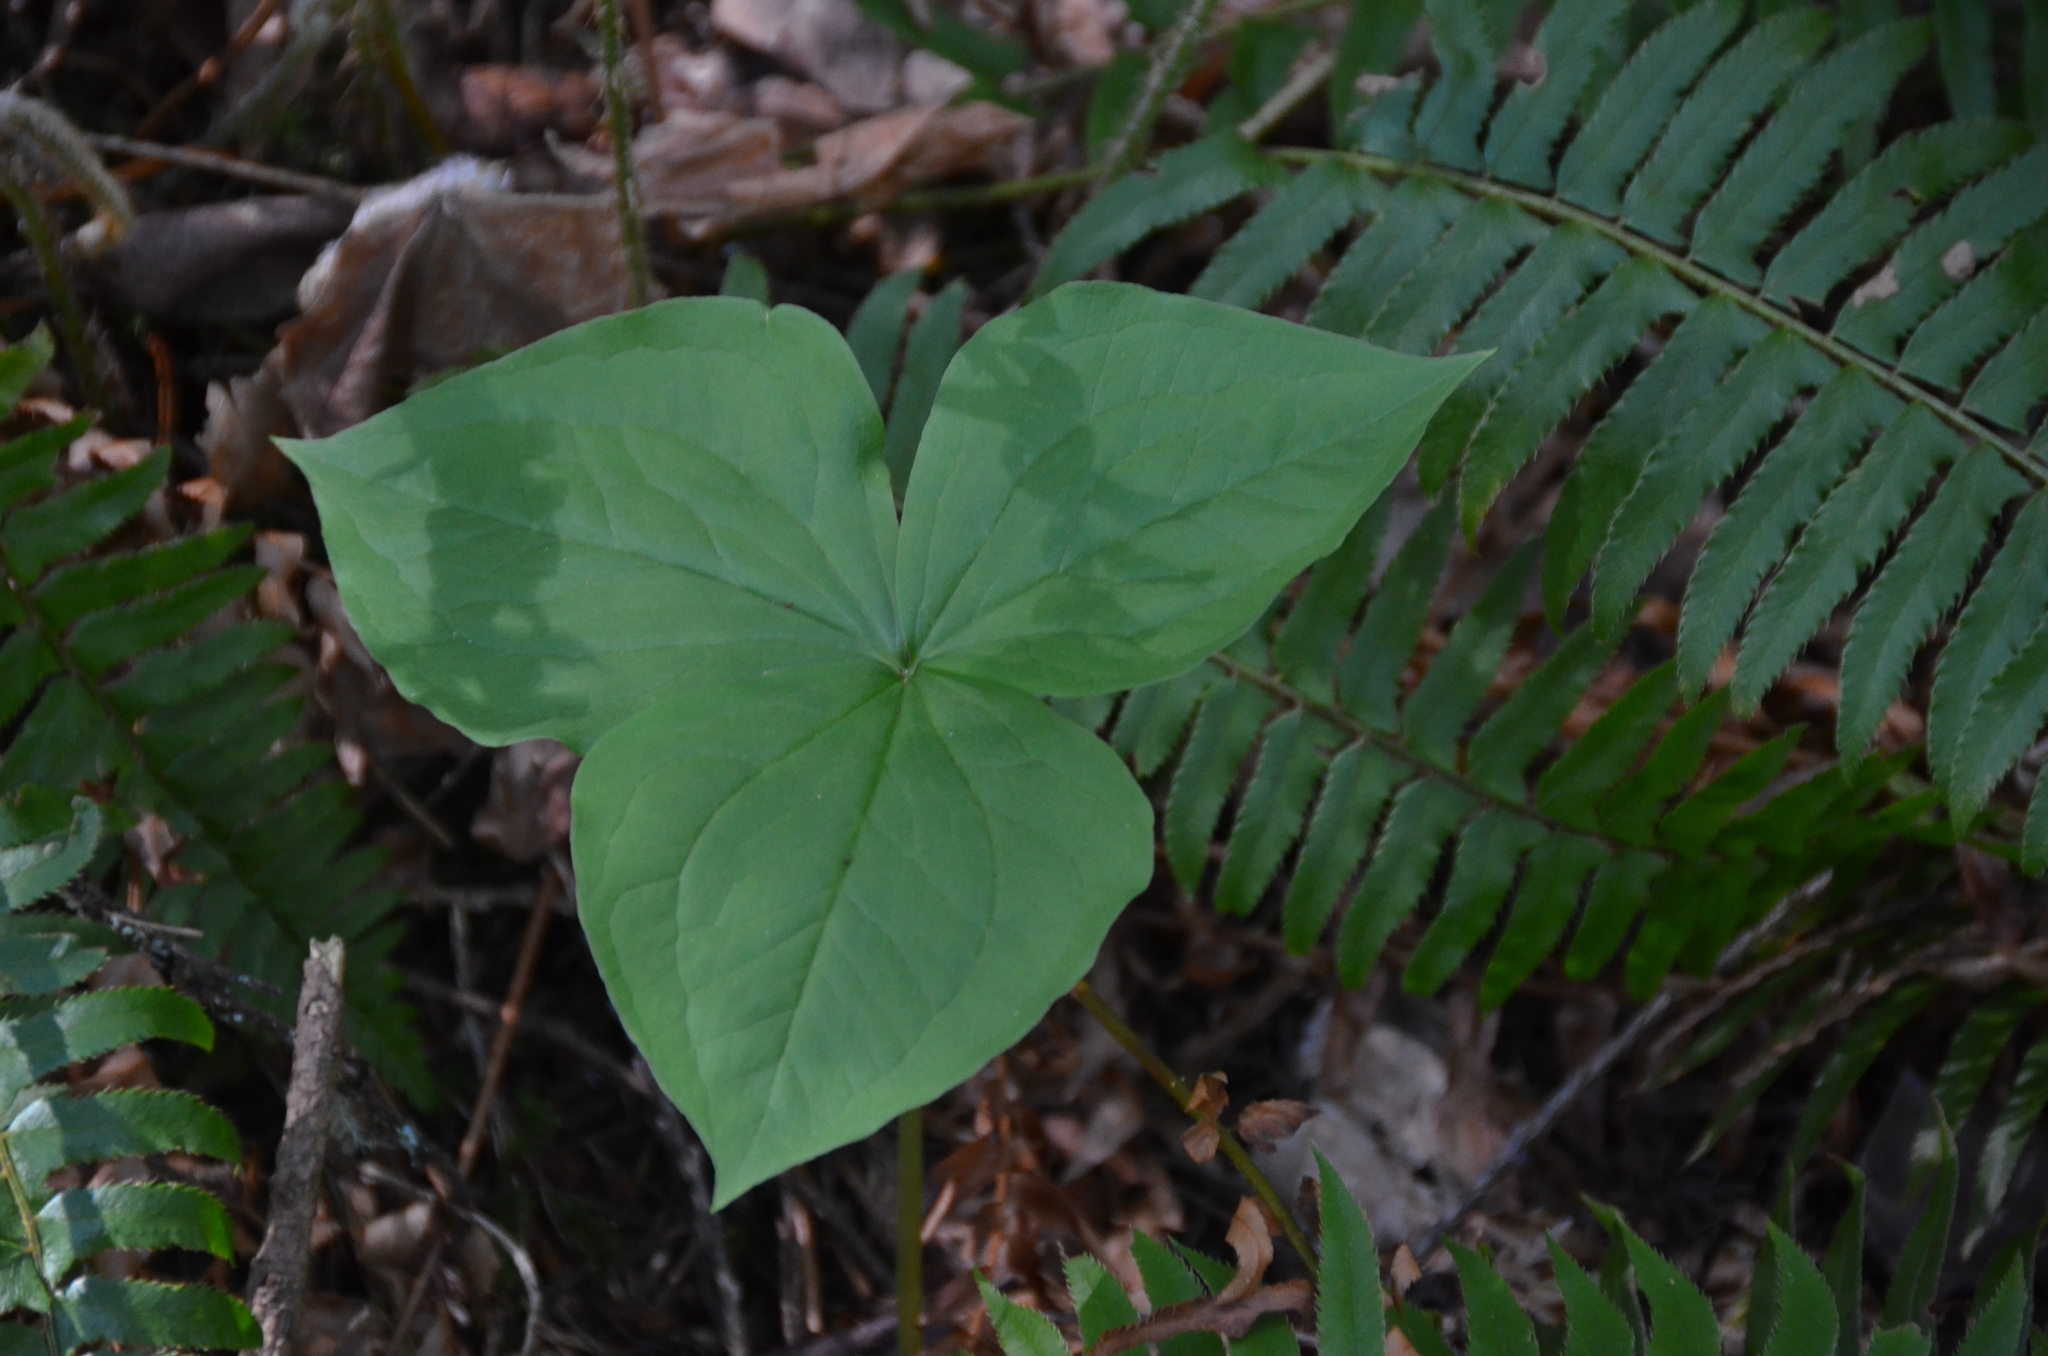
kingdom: Plantae
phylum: Tracheophyta
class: Liliopsida
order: Liliales
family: Melanthiaceae
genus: Trillium
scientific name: Trillium ovatum
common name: Pacific trillium
